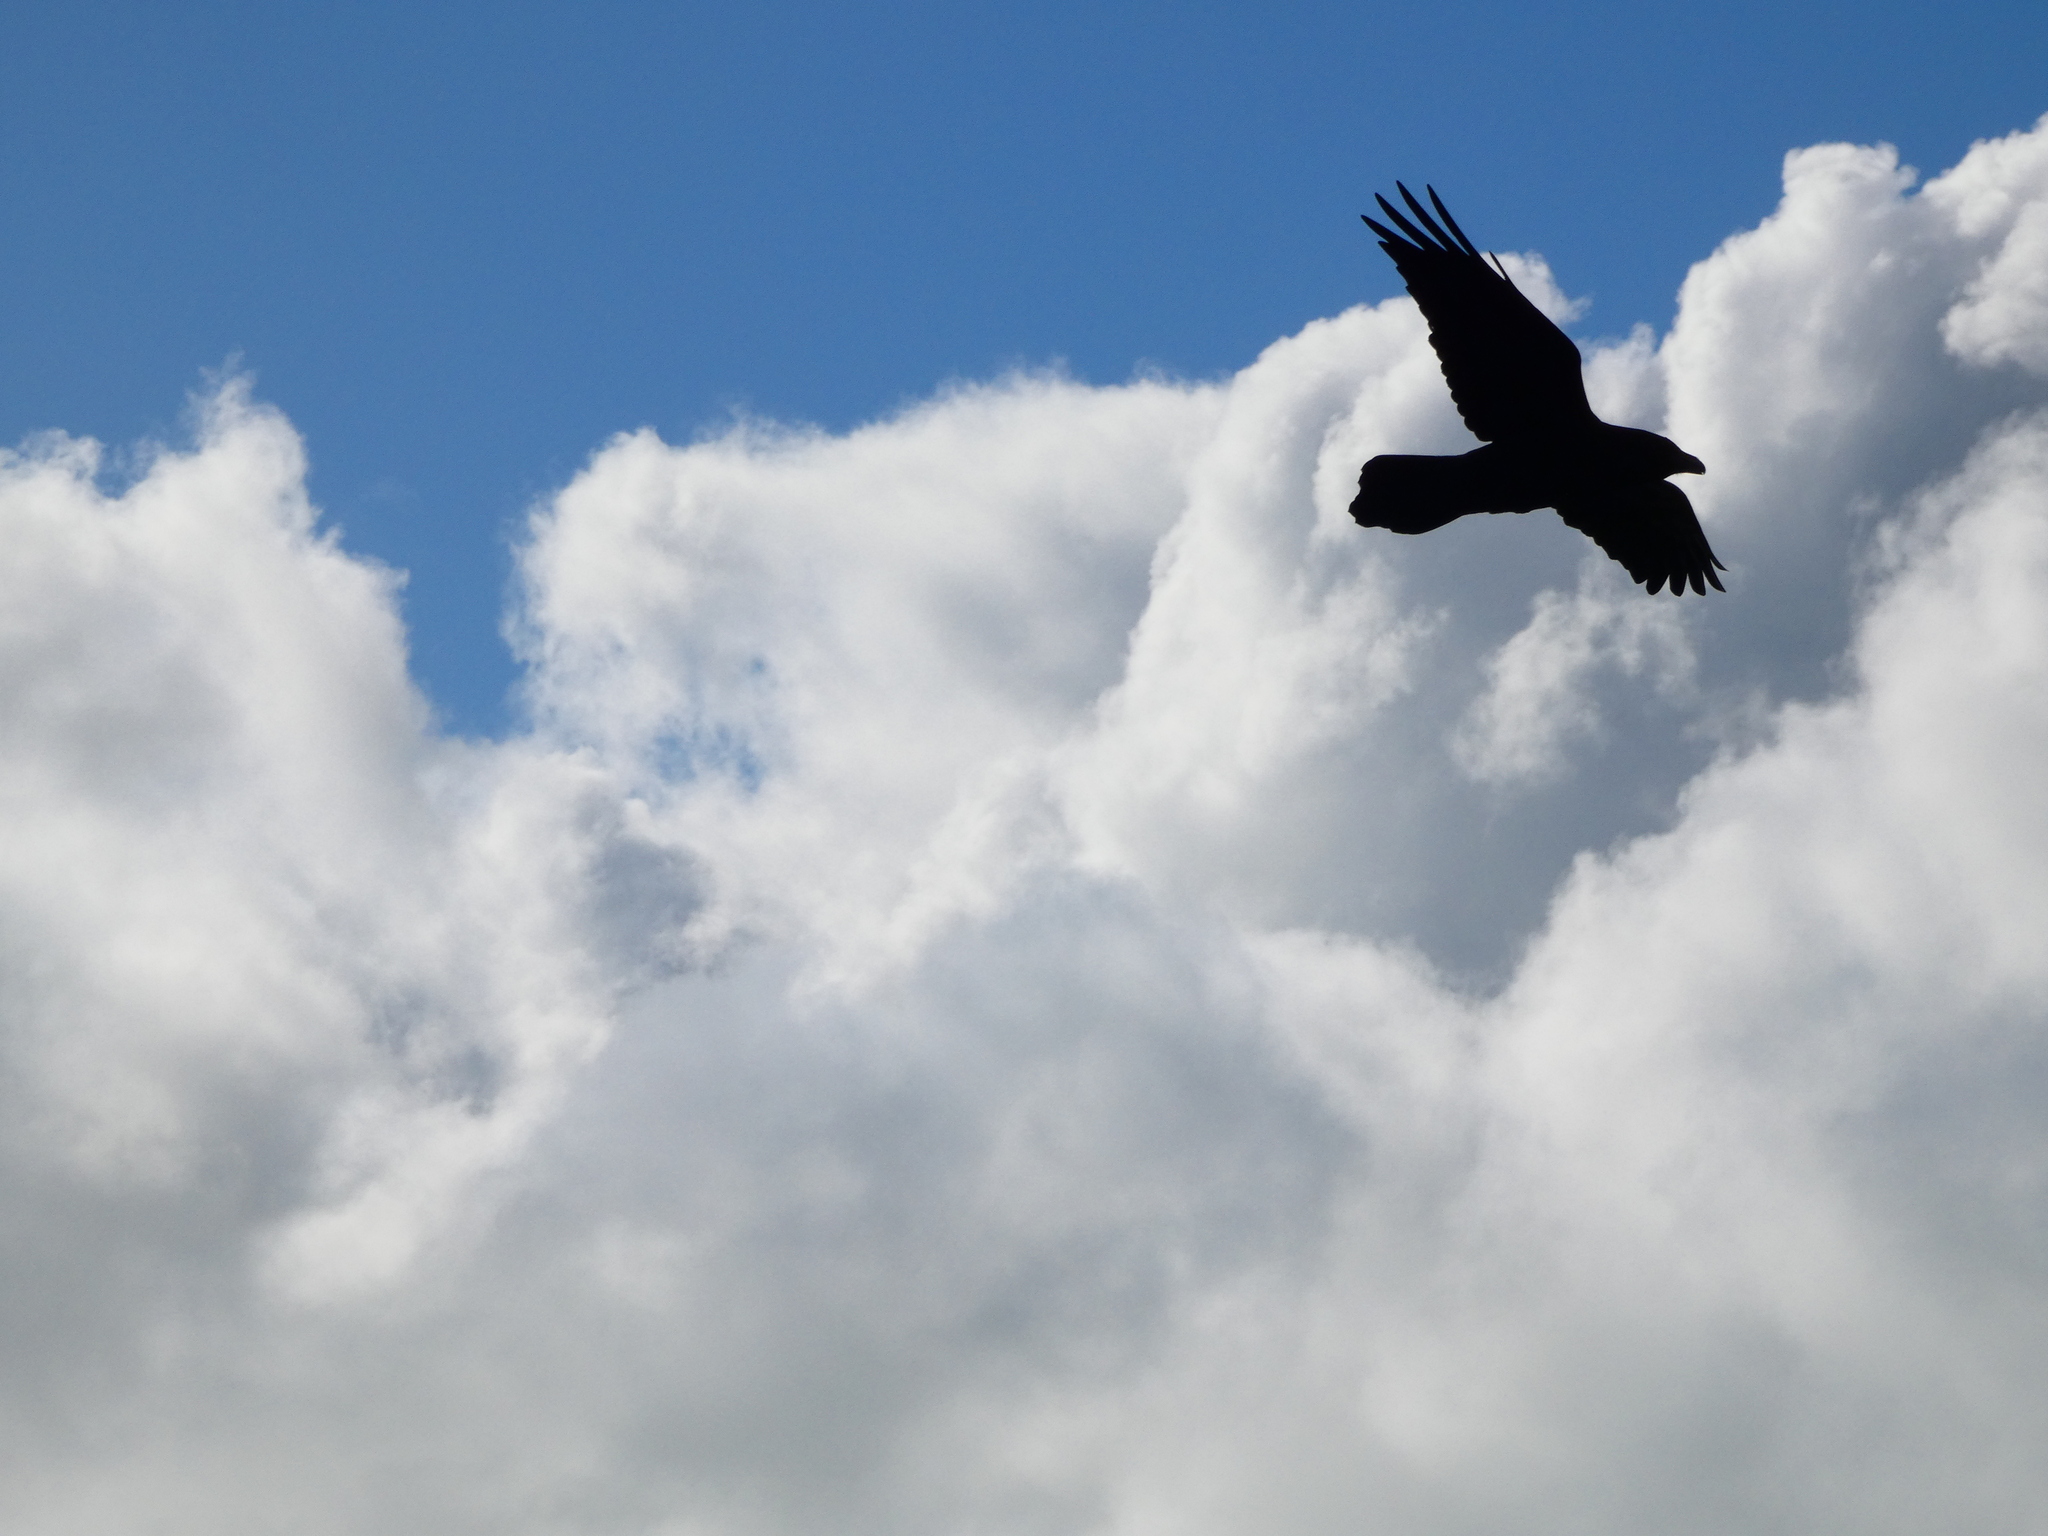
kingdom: Animalia
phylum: Chordata
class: Aves
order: Passeriformes
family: Corvidae
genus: Corvus
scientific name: Corvus corax
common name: Common raven
